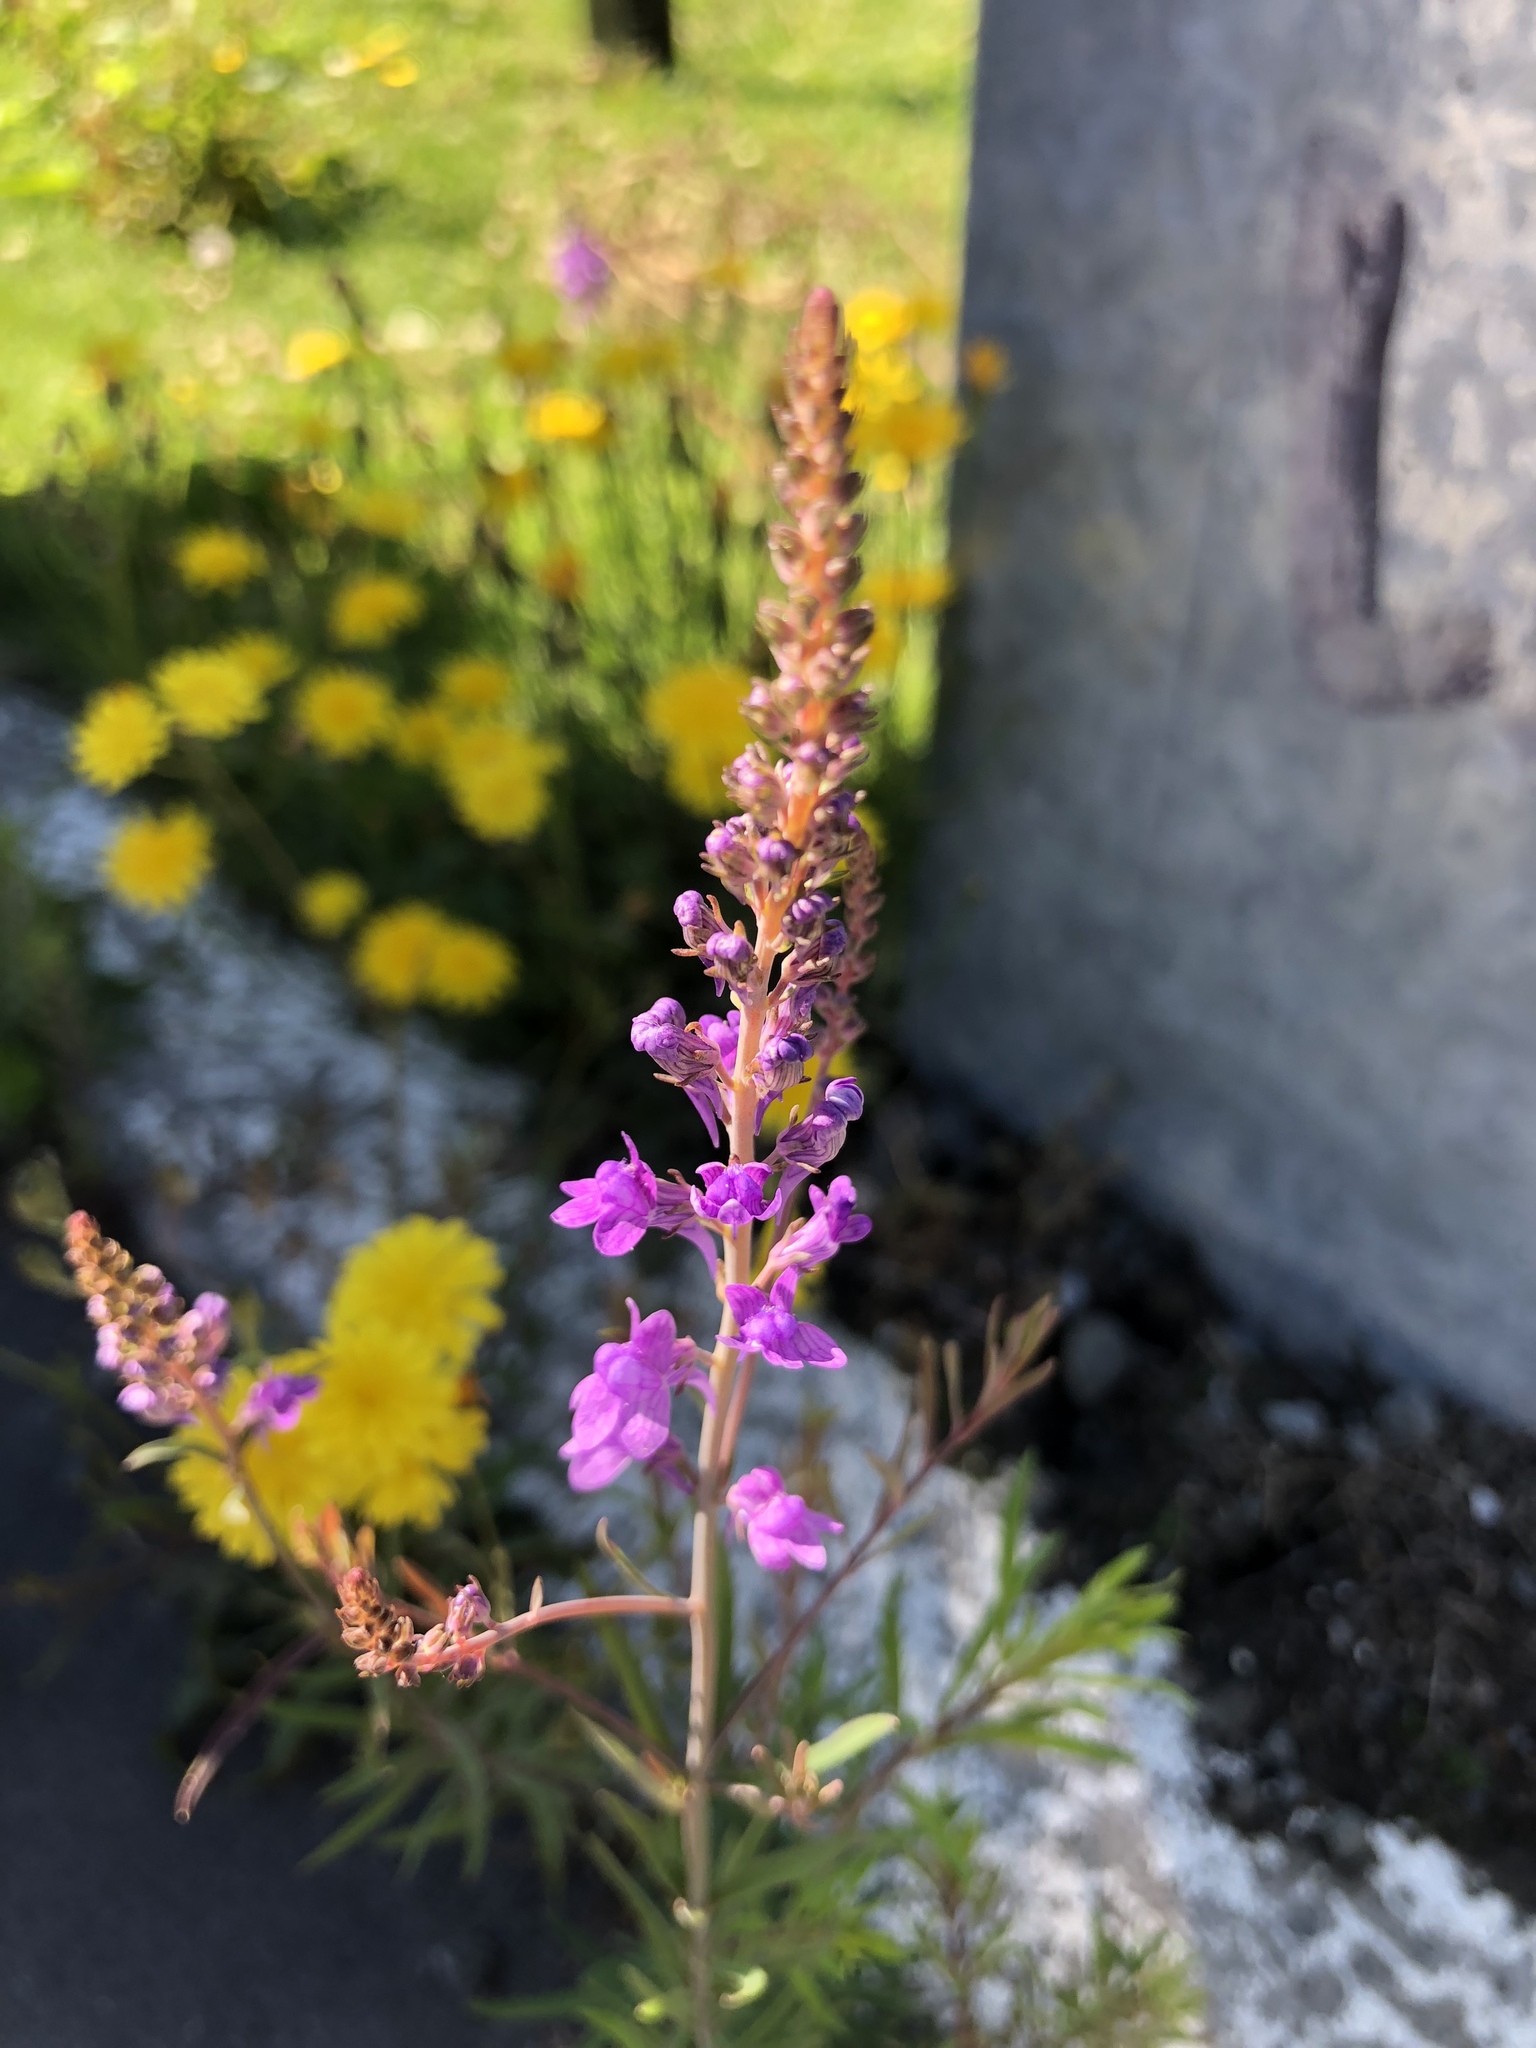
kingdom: Plantae
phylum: Tracheophyta
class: Magnoliopsida
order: Lamiales
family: Plantaginaceae
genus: Linaria
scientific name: Linaria purpurea
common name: Purple toadflax
